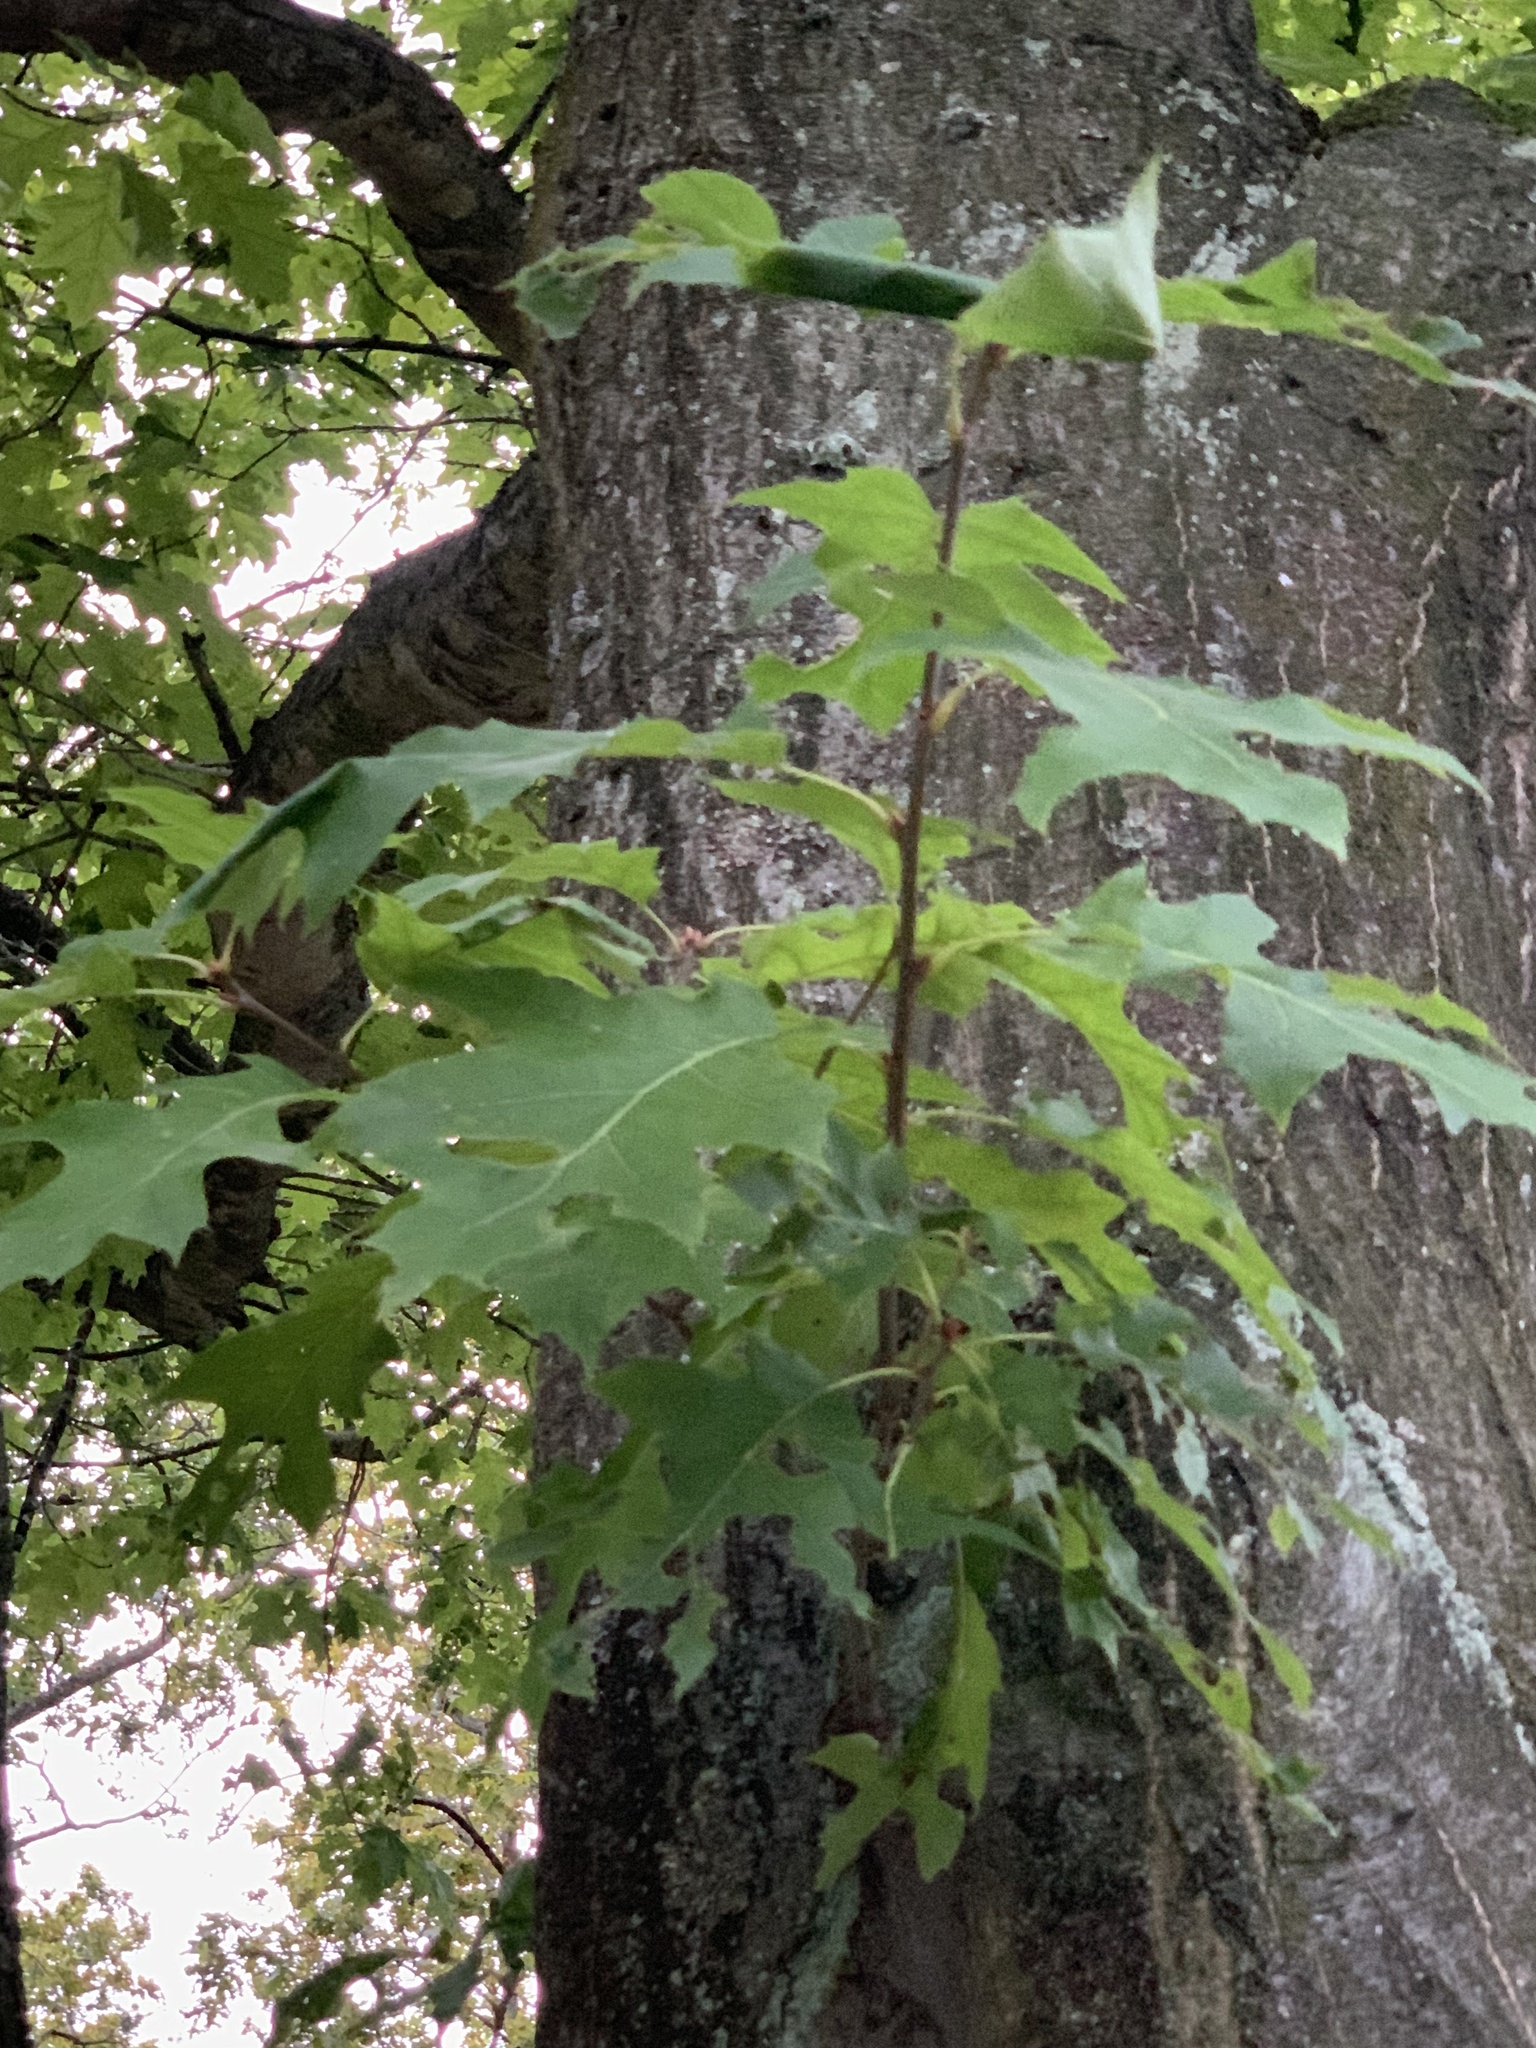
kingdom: Plantae
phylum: Tracheophyta
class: Magnoliopsida
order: Fagales
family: Fagaceae
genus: Quercus
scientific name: Quercus rubra
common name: Red oak
